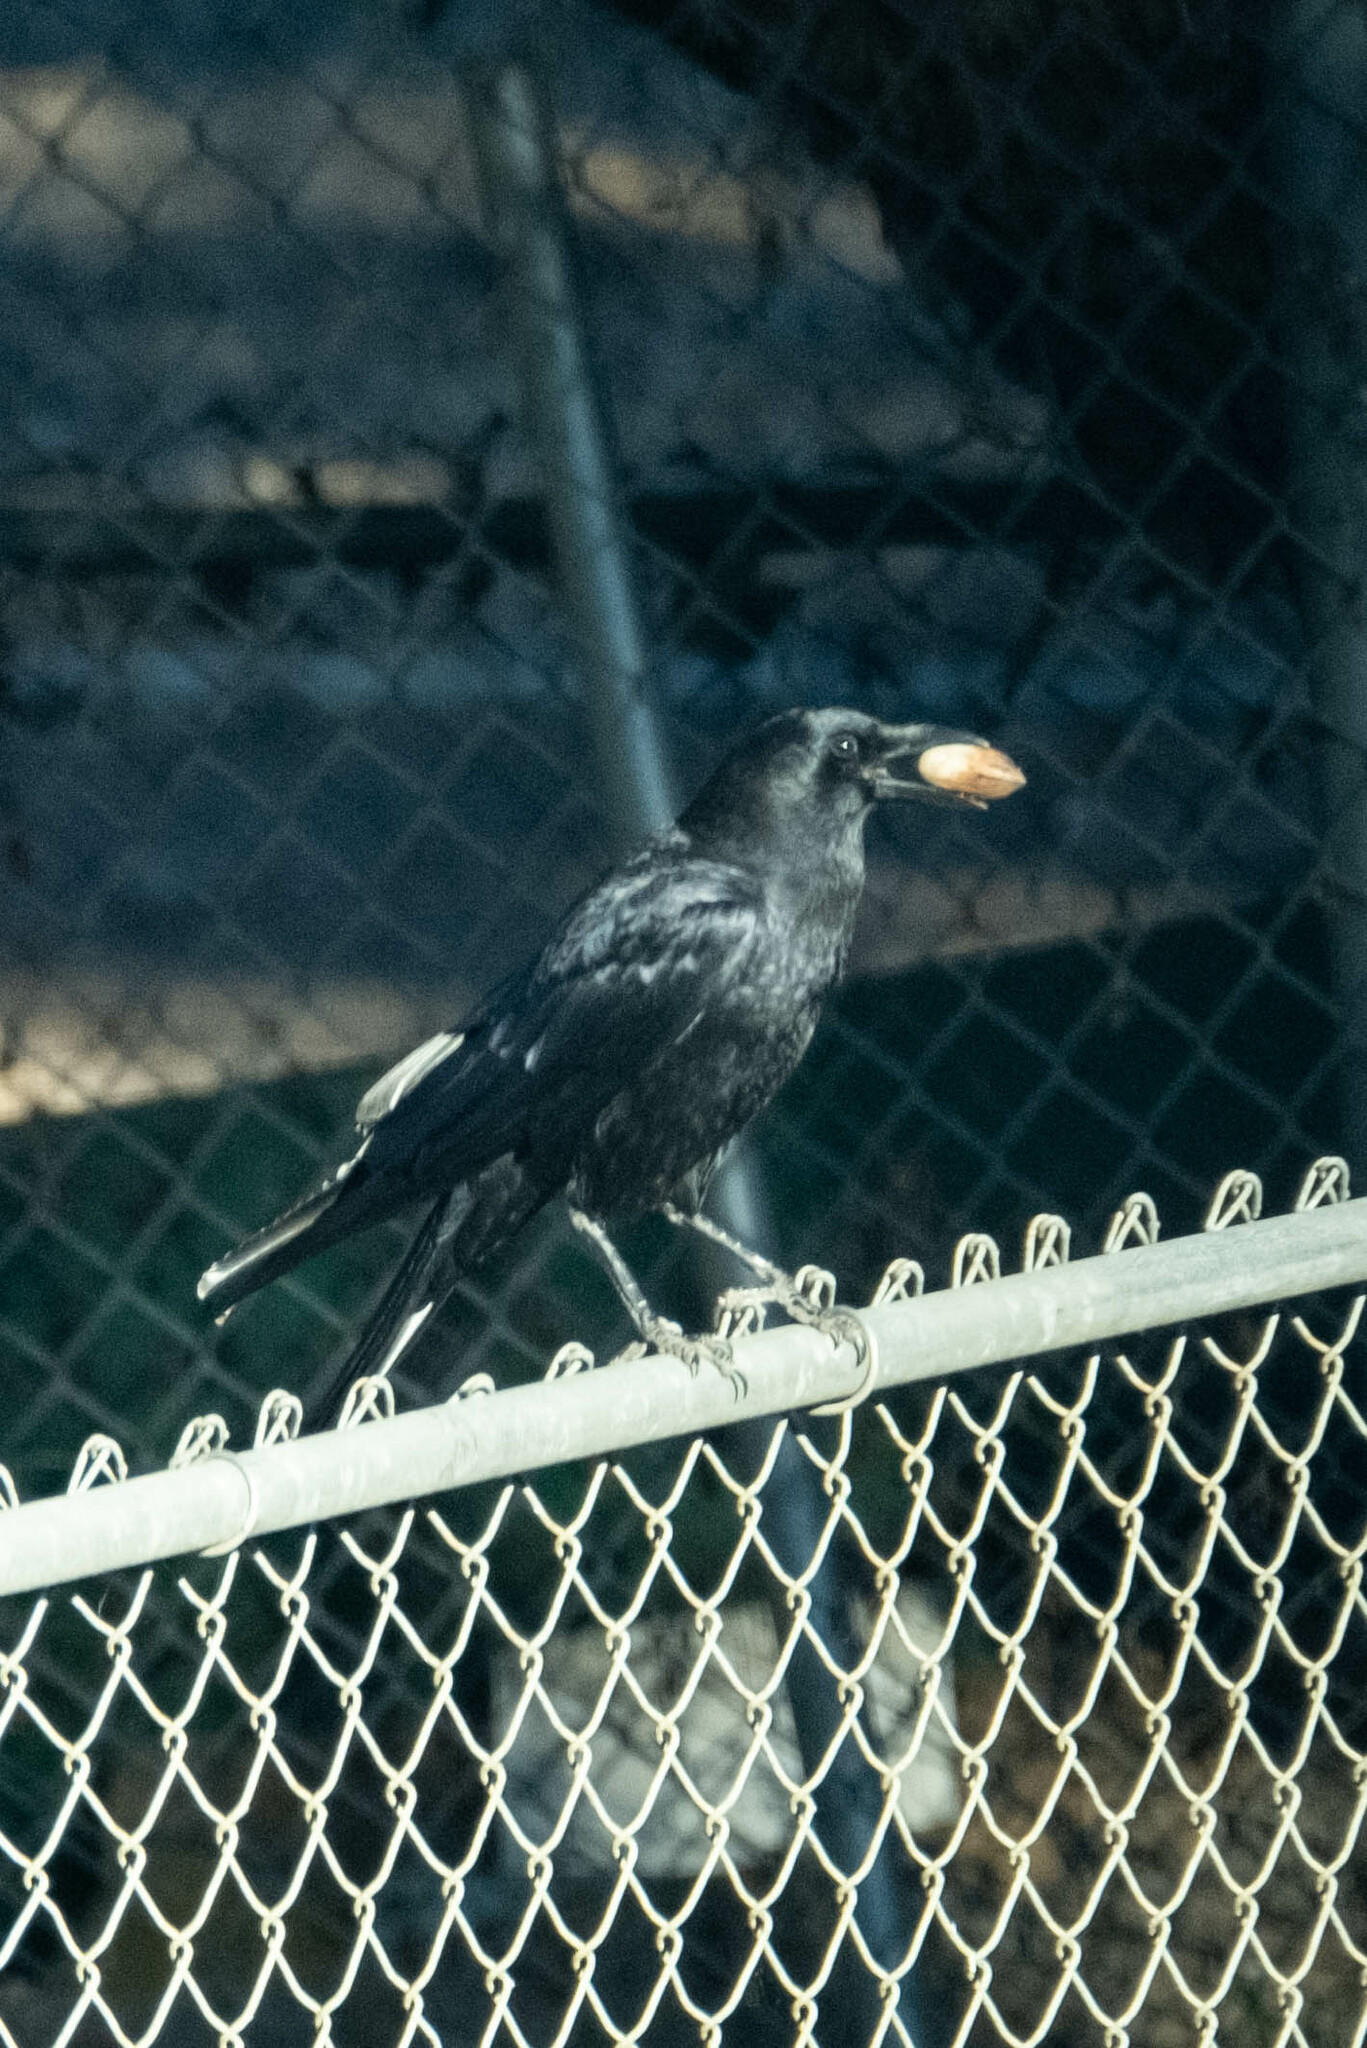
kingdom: Animalia
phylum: Chordata
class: Aves
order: Passeriformes
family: Corvidae
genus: Corvus
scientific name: Corvus brachyrhynchos
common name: American crow
